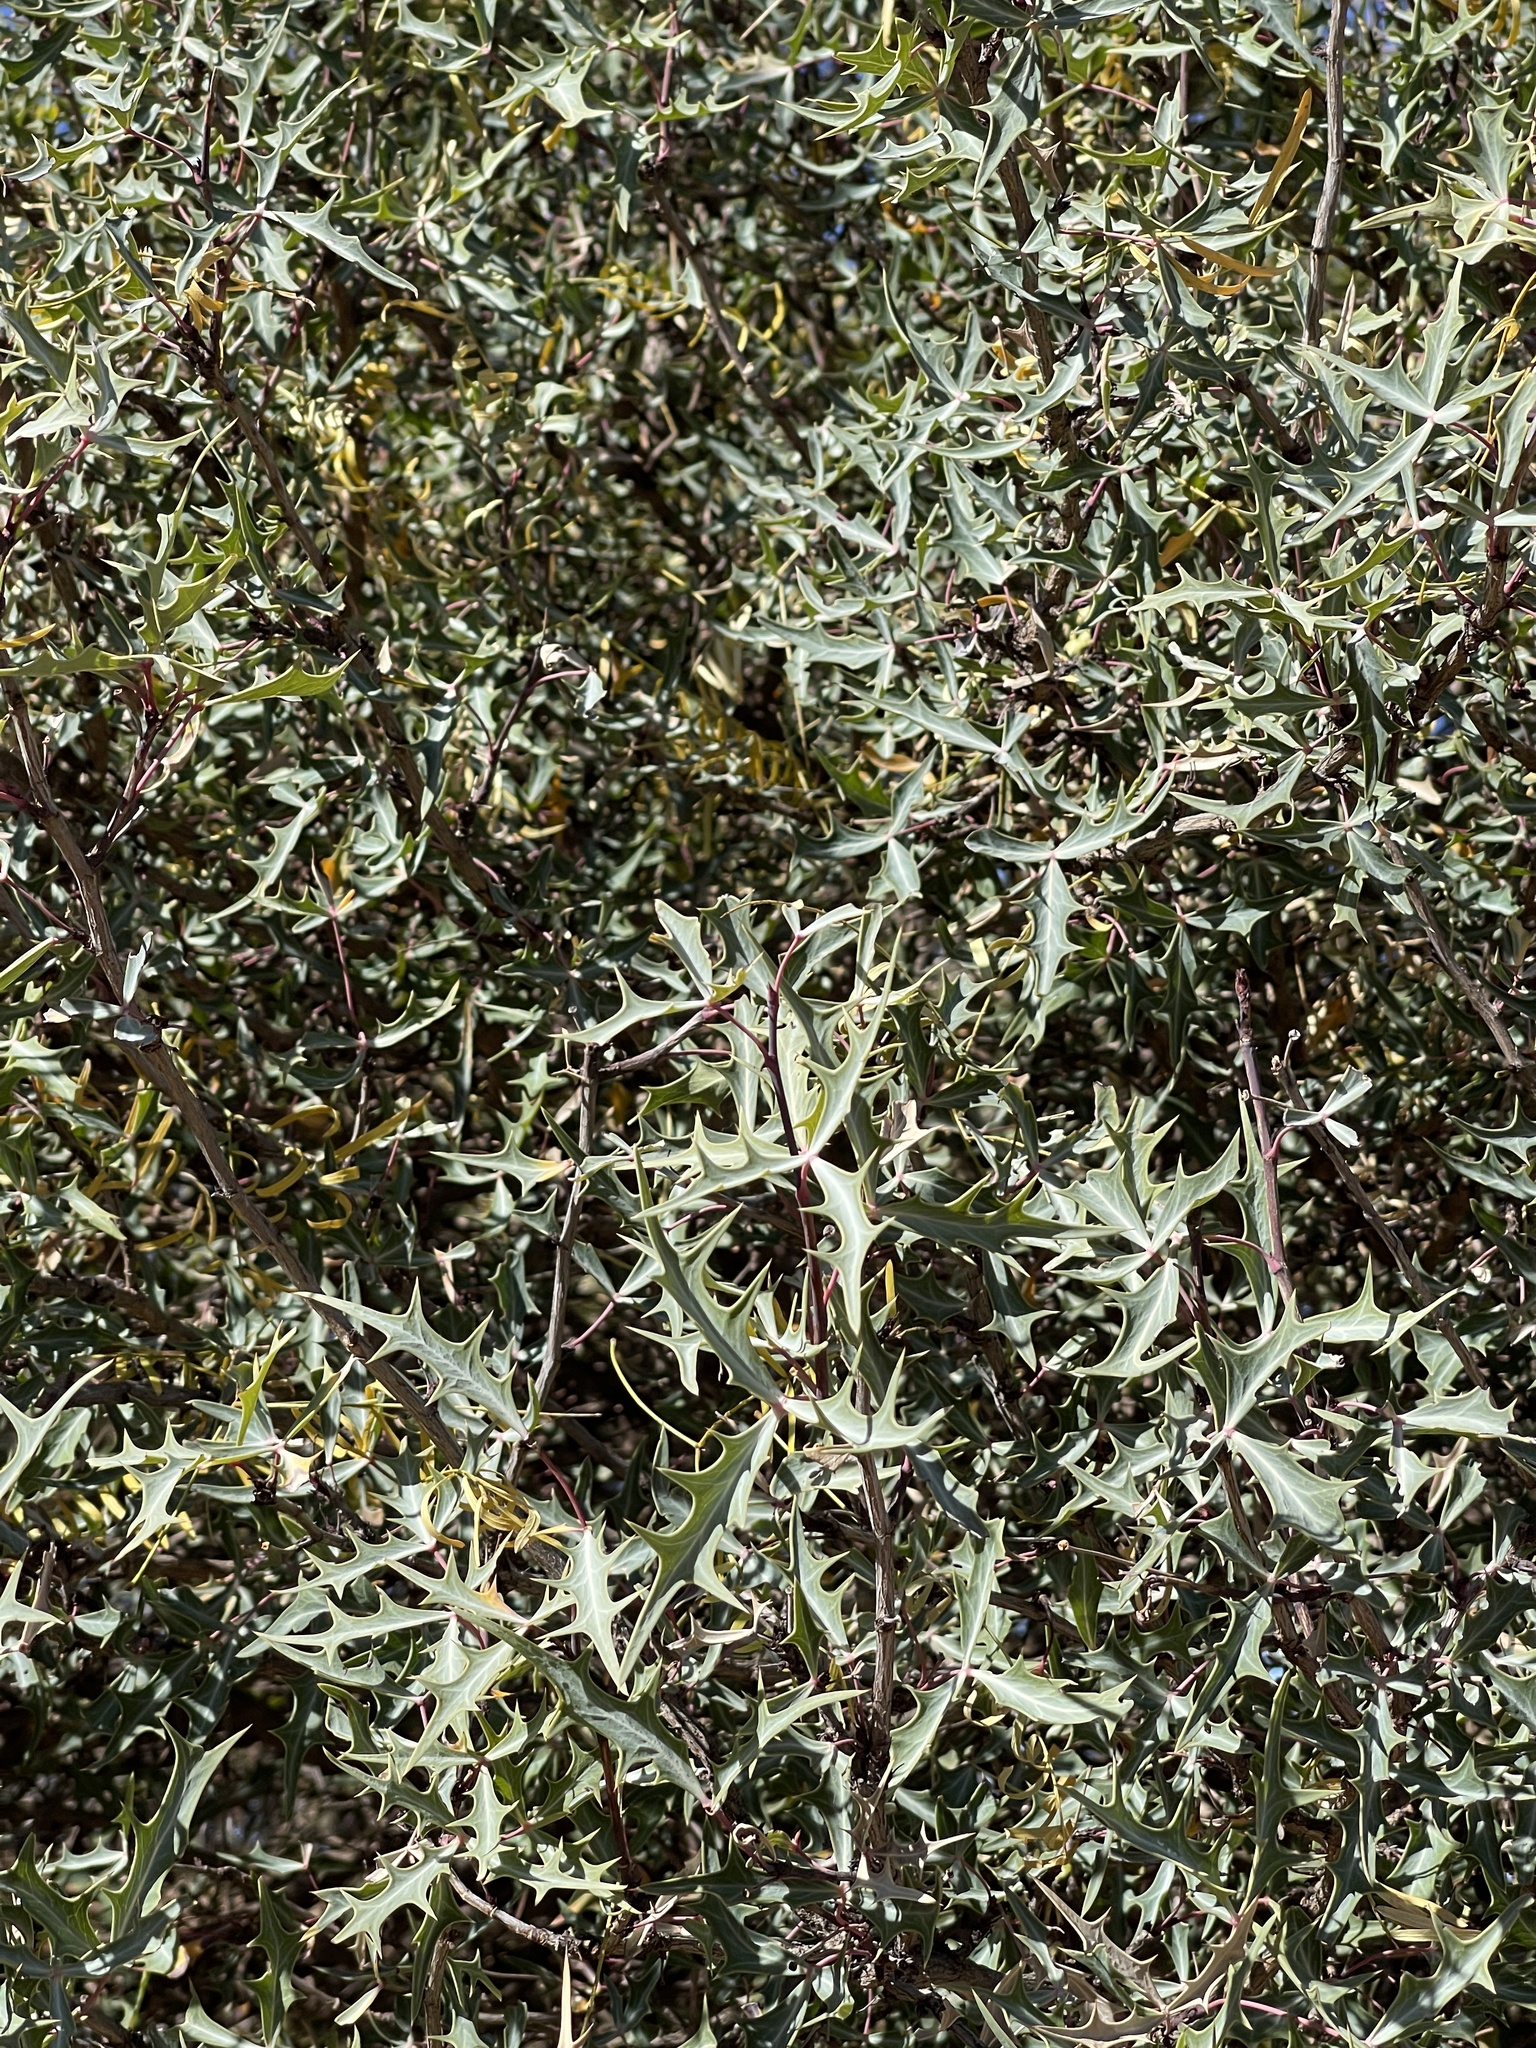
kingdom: Plantae
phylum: Tracheophyta
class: Magnoliopsida
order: Ranunculales
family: Berberidaceae
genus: Alloberberis
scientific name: Alloberberis trifoliolata
